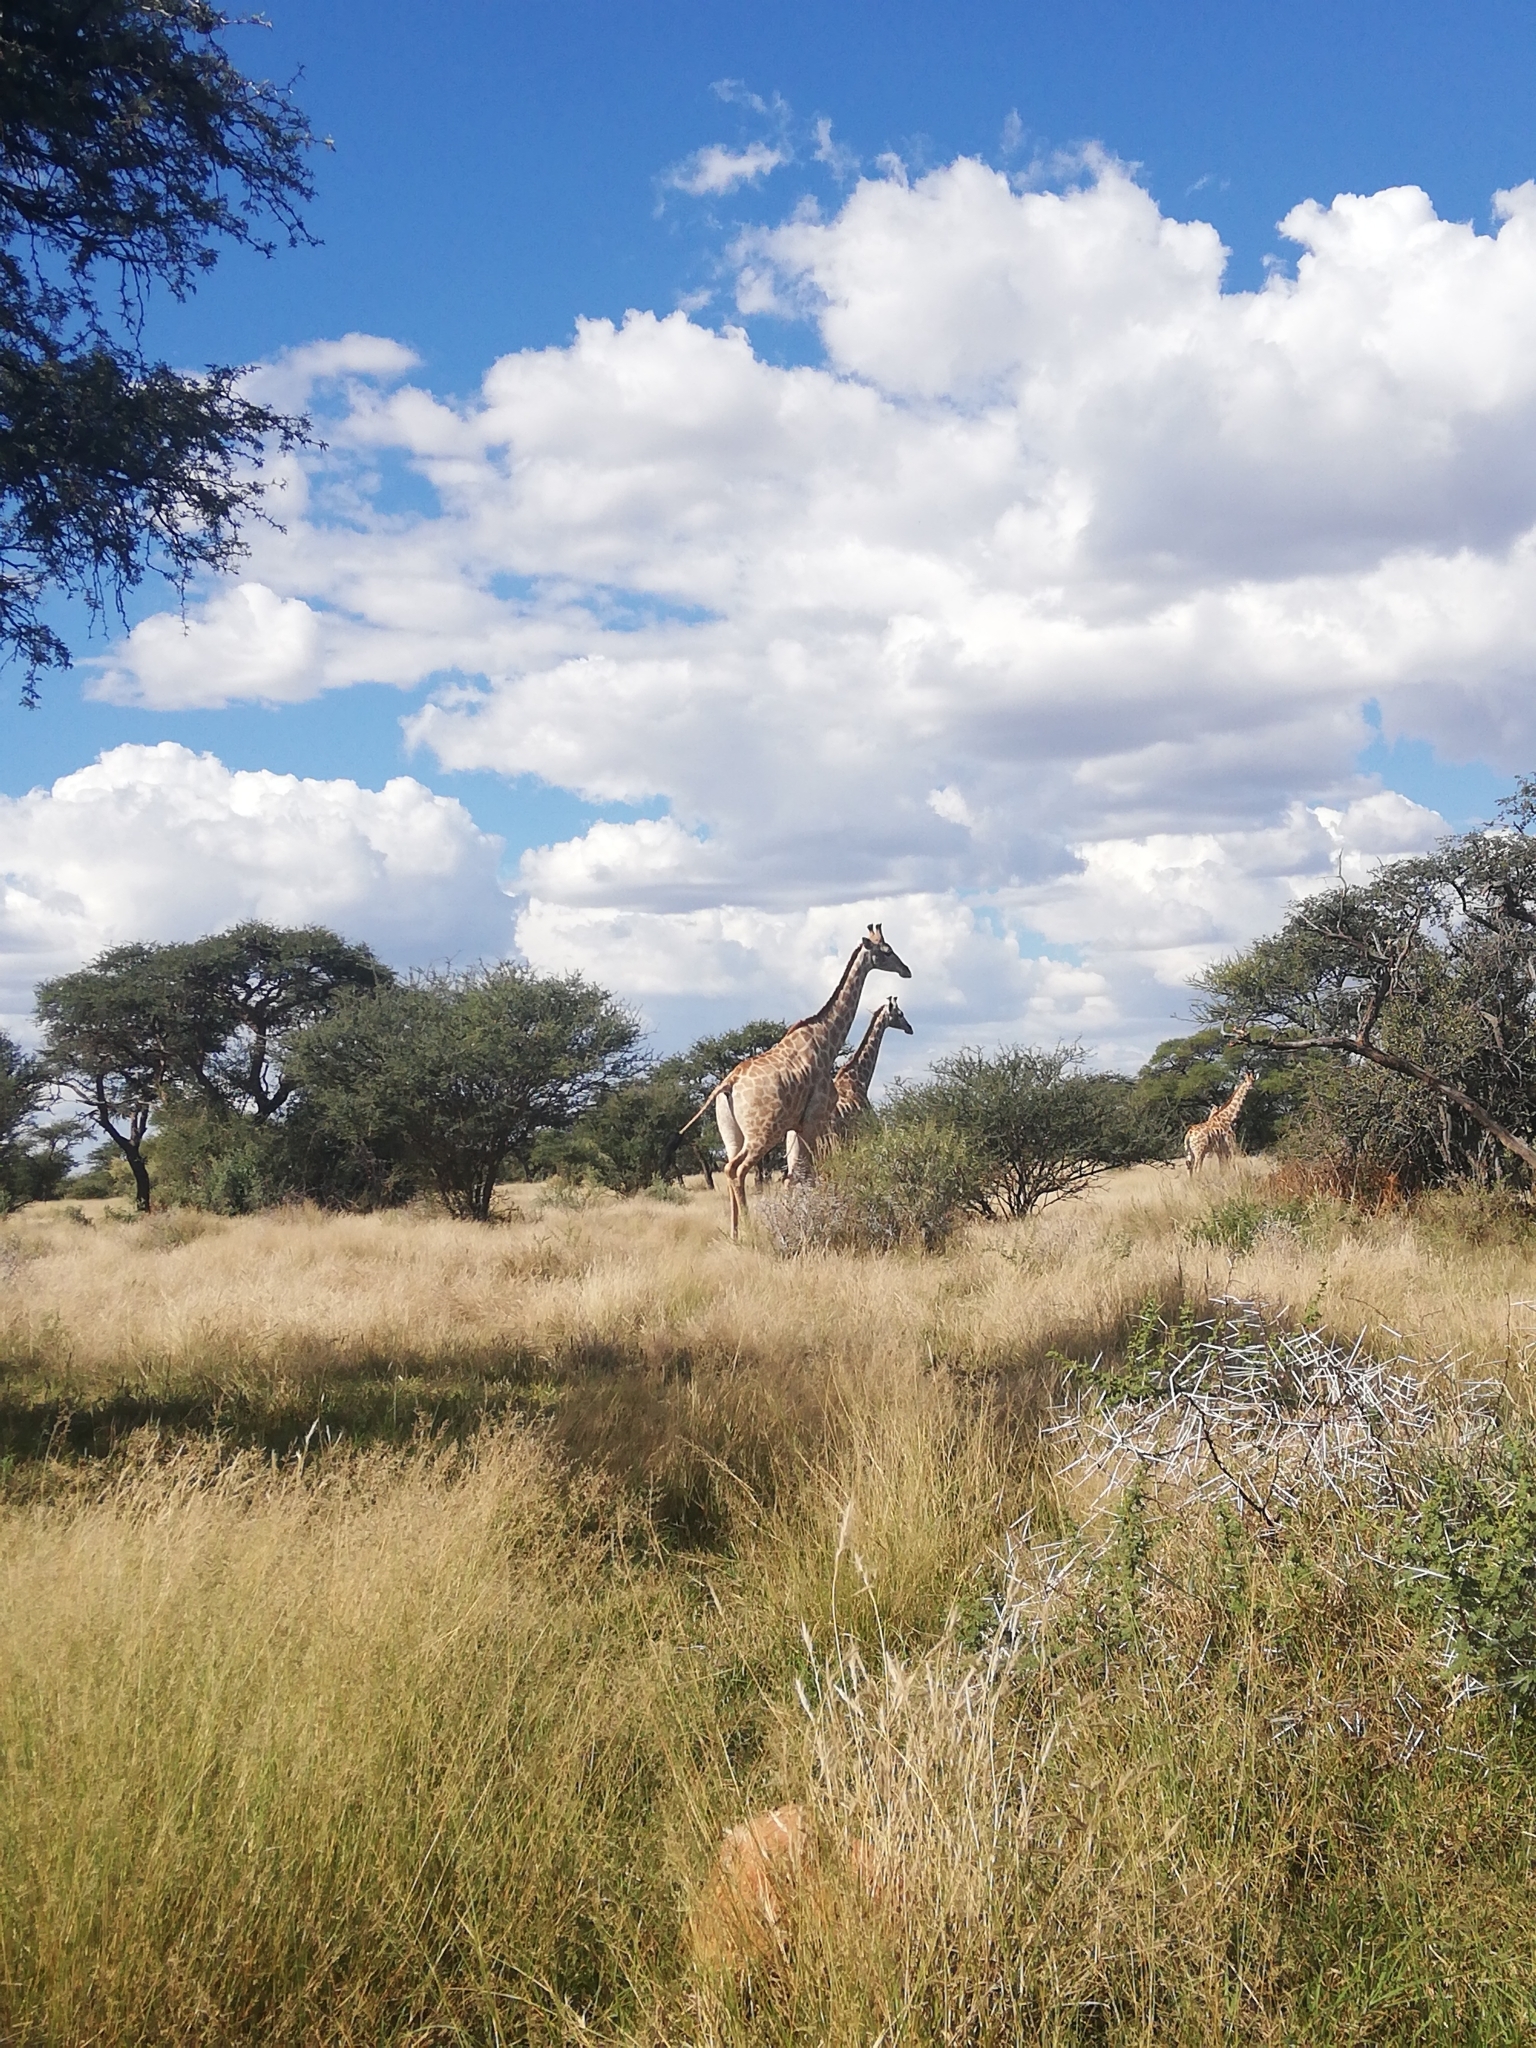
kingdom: Animalia
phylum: Chordata
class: Mammalia
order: Artiodactyla
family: Giraffidae
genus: Giraffa
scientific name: Giraffa giraffa
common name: Southern giraffe
